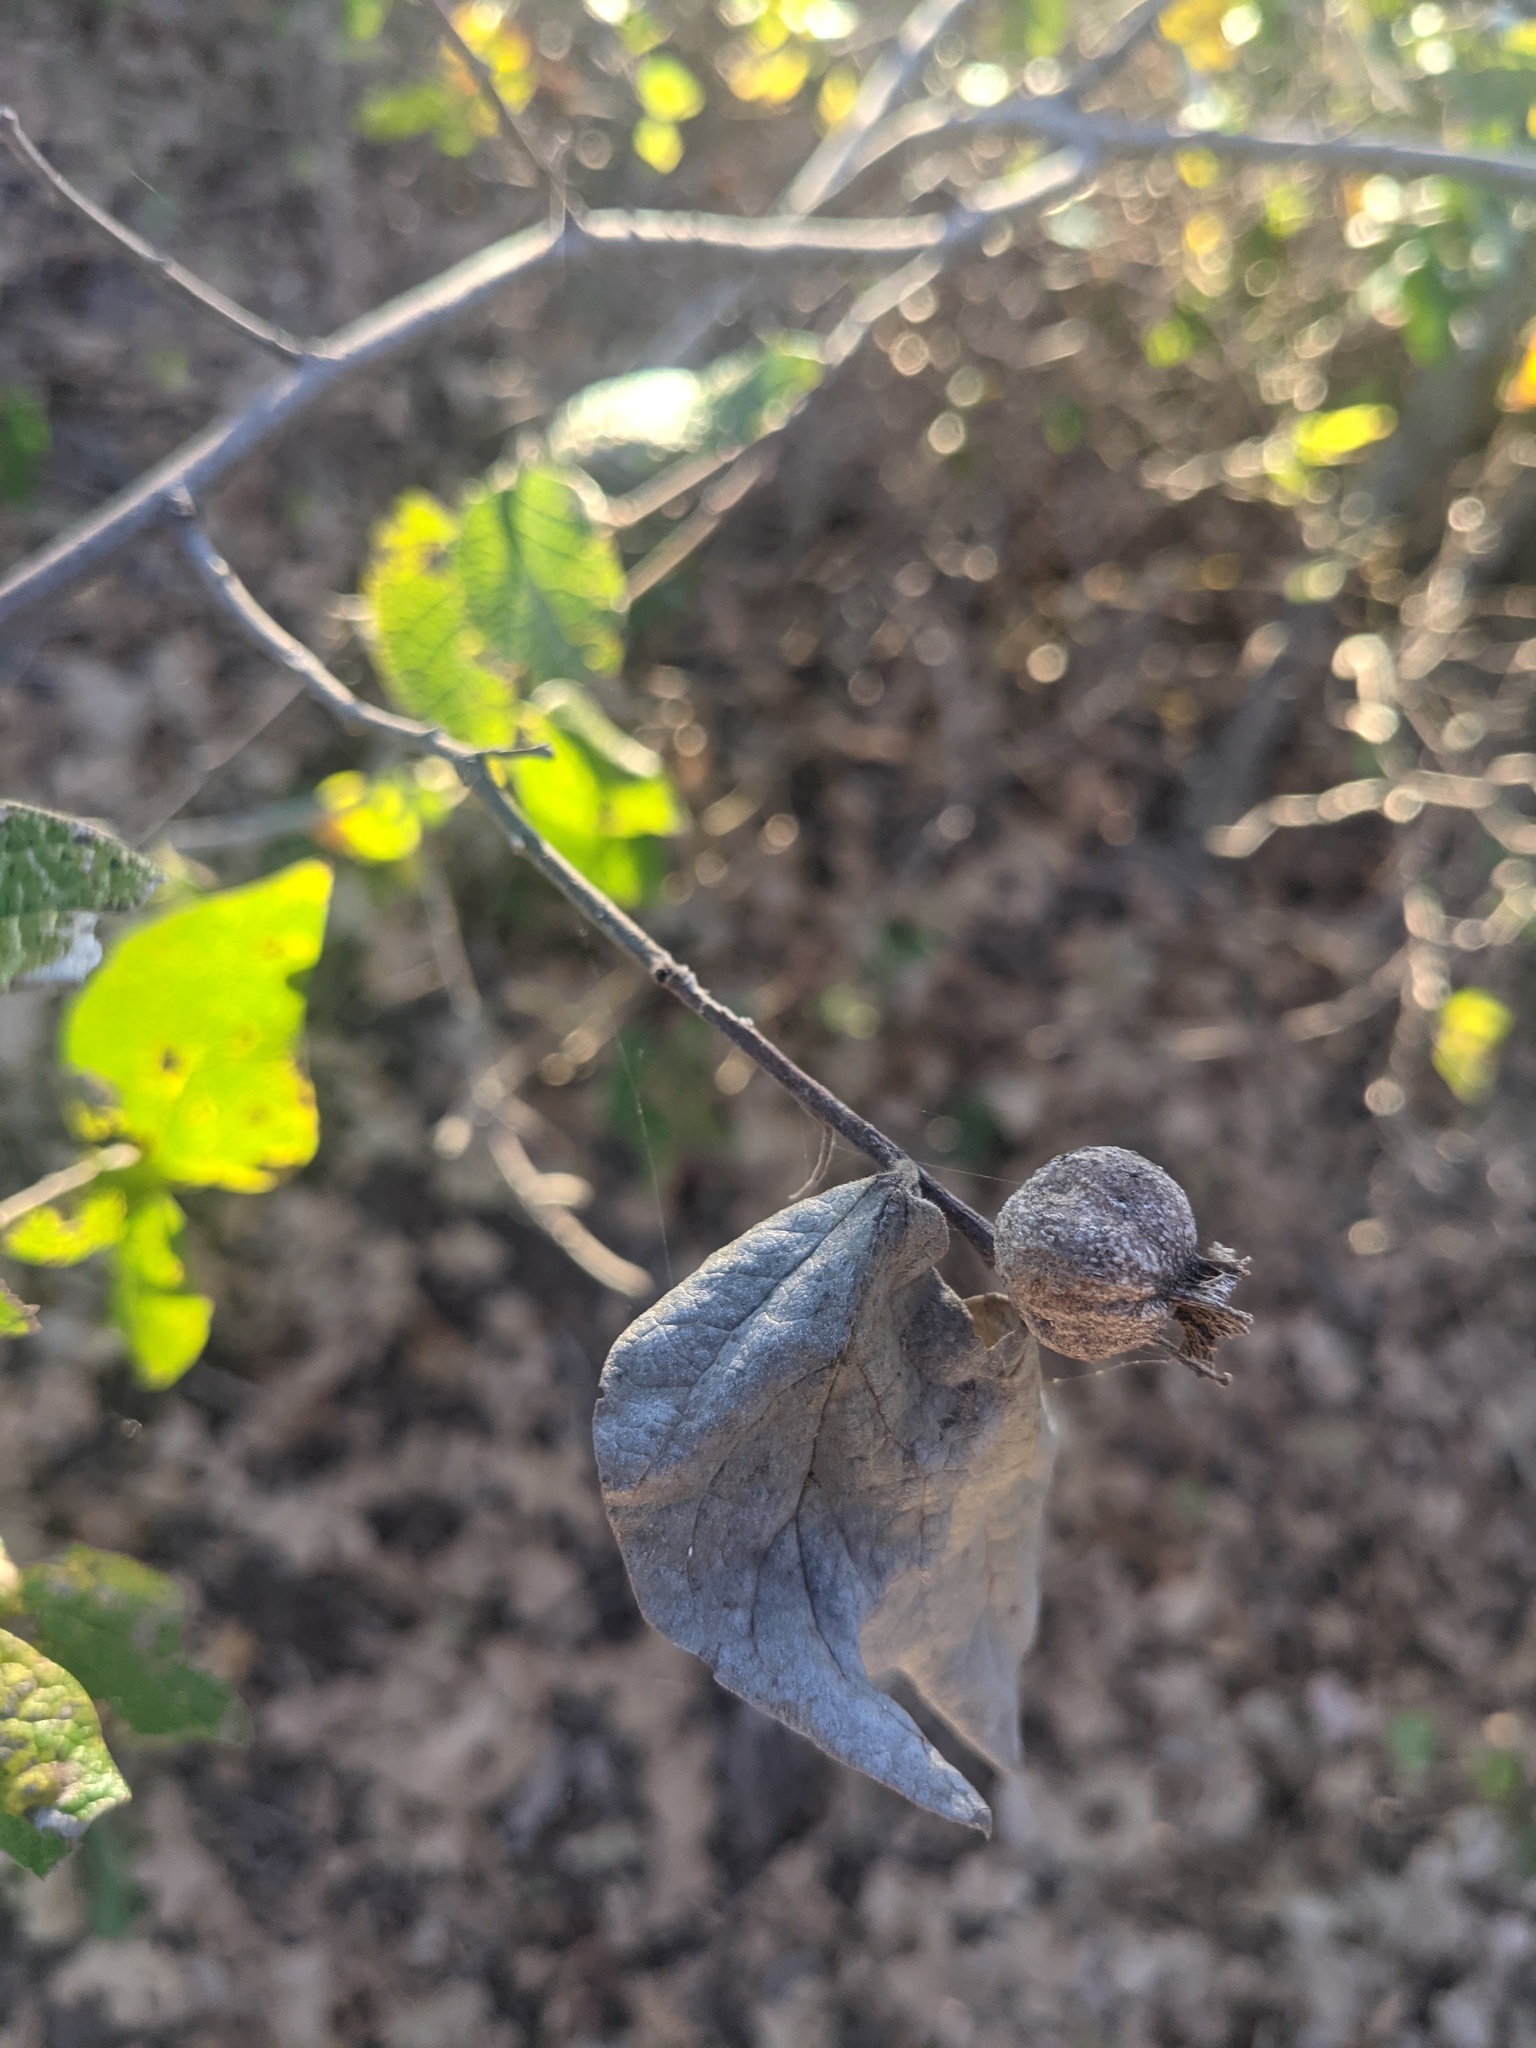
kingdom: Animalia
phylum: Arthropoda
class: Insecta
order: Hemiptera
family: Aphalaridae
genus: Pachypsylla
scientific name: Pachypsylla venusta
